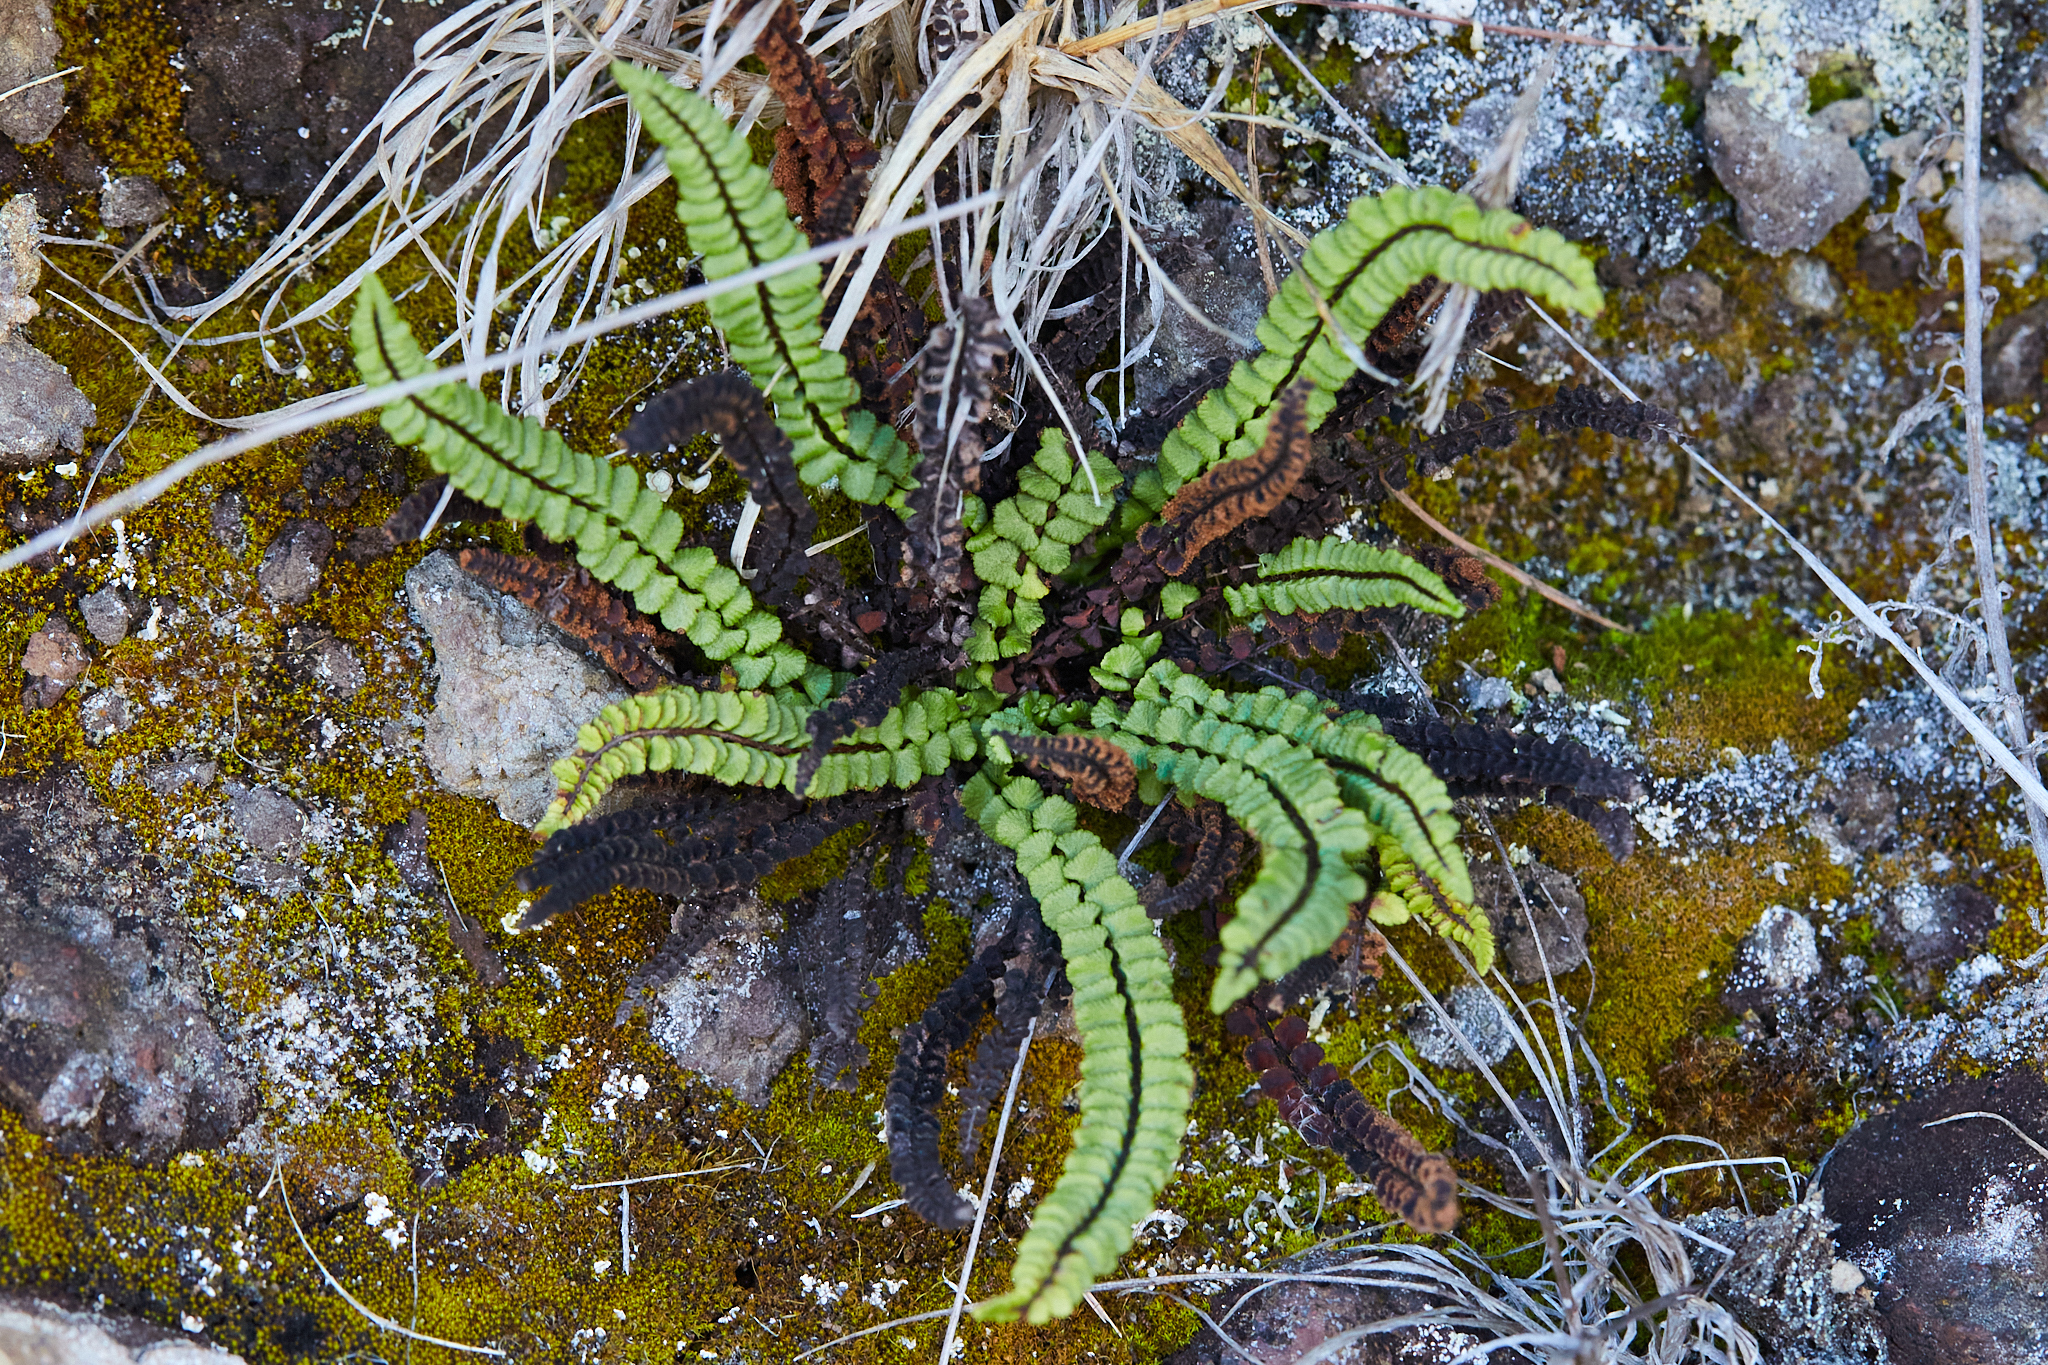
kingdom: Plantae
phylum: Tracheophyta
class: Polypodiopsida
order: Polypodiales
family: Aspleniaceae
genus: Asplenium
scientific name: Asplenium trichomanes
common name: Maidenhair spleenwort
